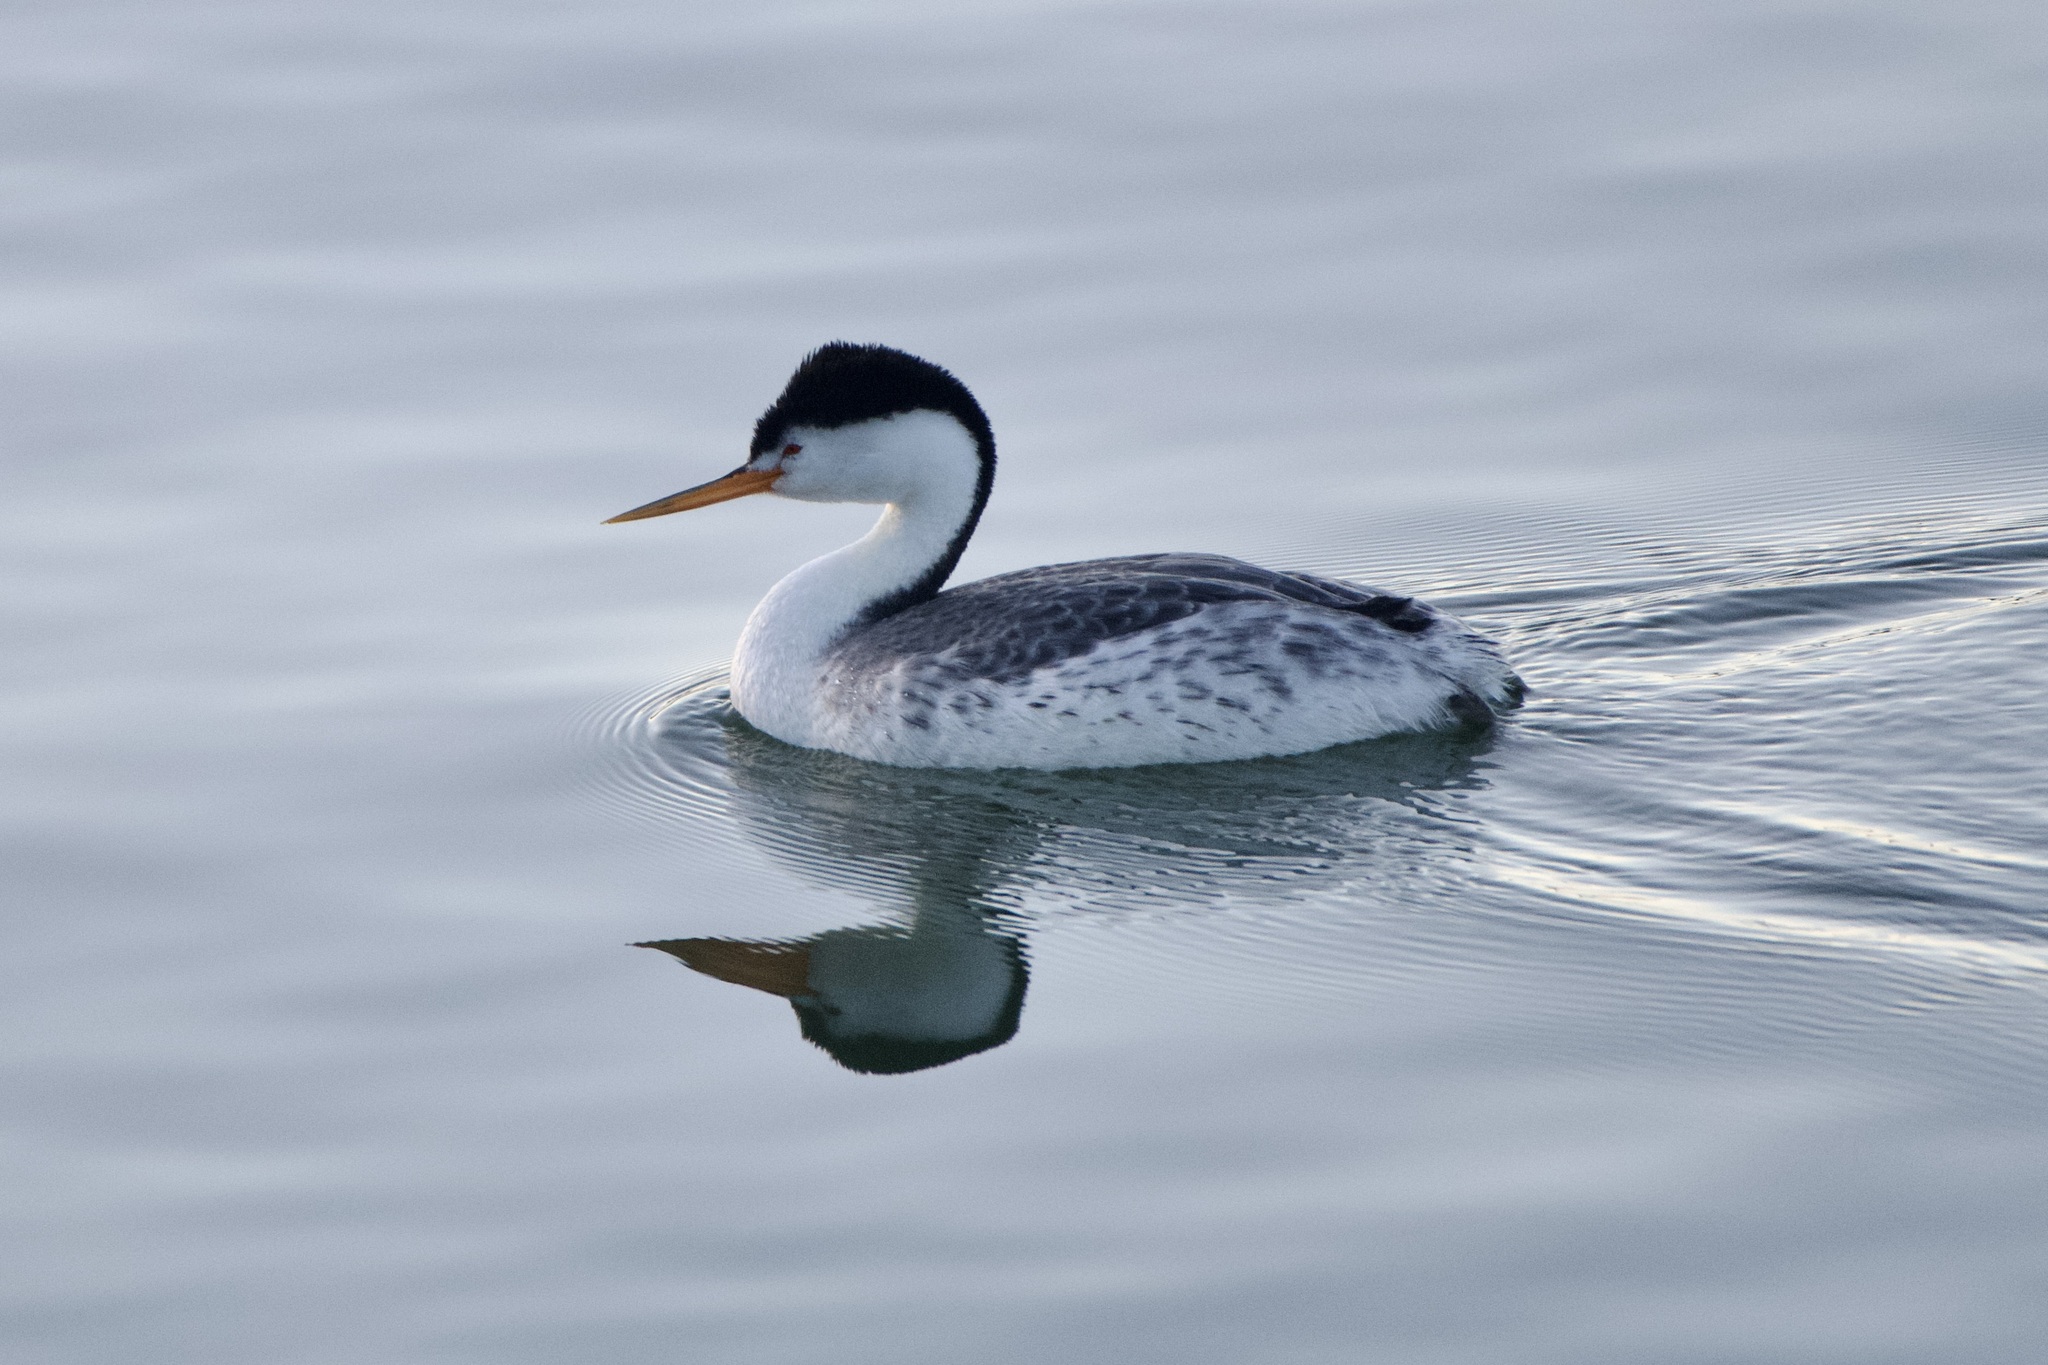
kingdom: Animalia
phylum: Chordata
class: Aves
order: Podicipediformes
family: Podicipedidae
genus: Aechmophorus
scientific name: Aechmophorus clarkii
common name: Clark's grebe
